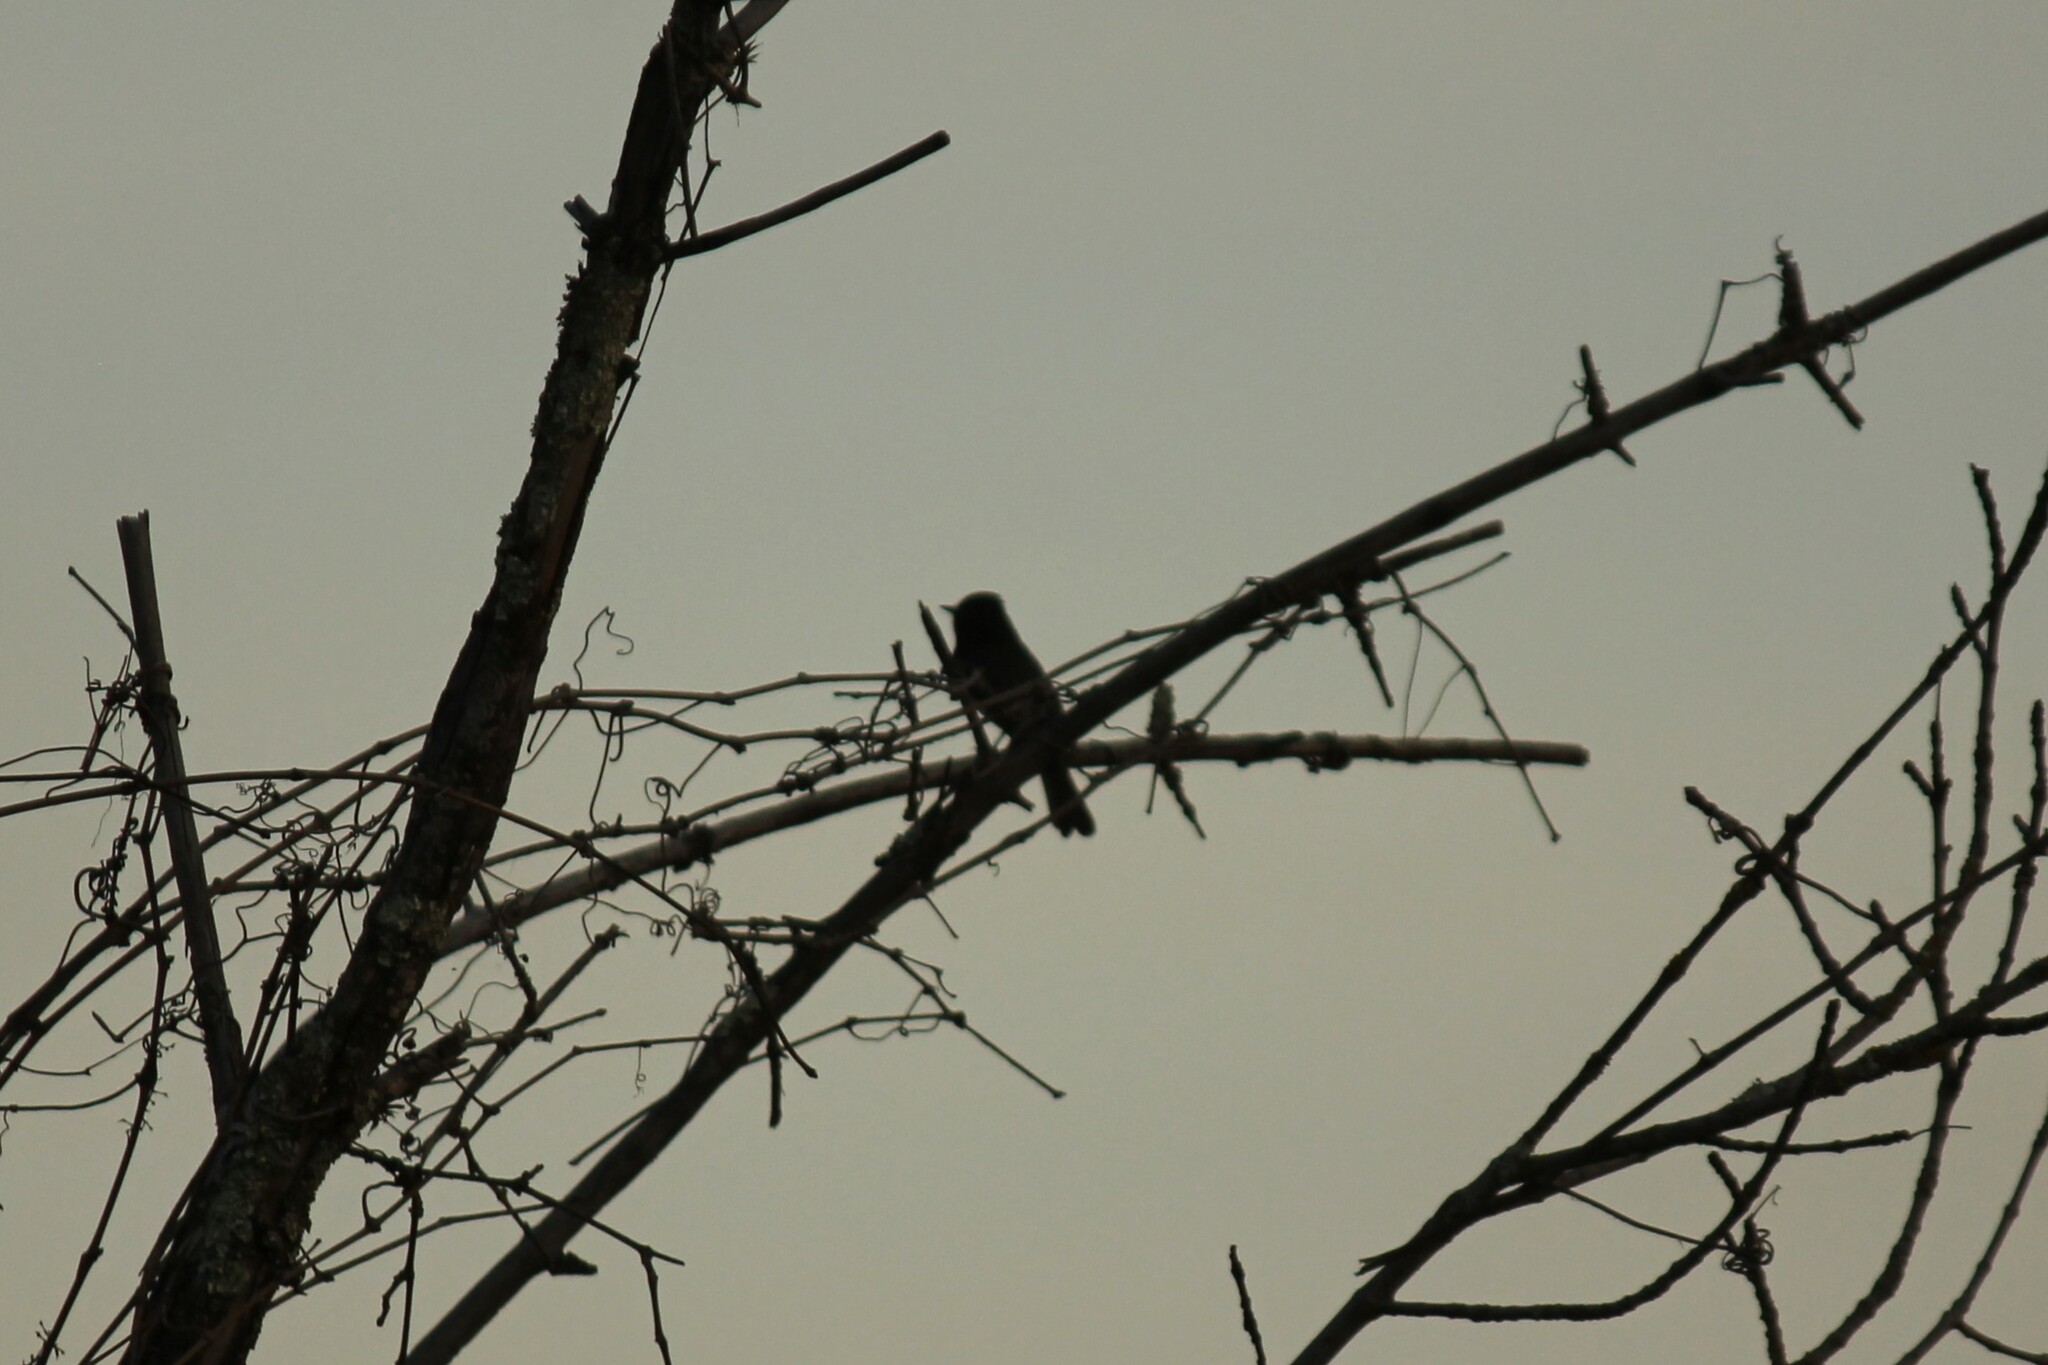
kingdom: Animalia
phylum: Chordata
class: Aves
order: Passeriformes
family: Tyrannidae
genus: Sayornis
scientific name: Sayornis nigricans
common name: Black phoebe
